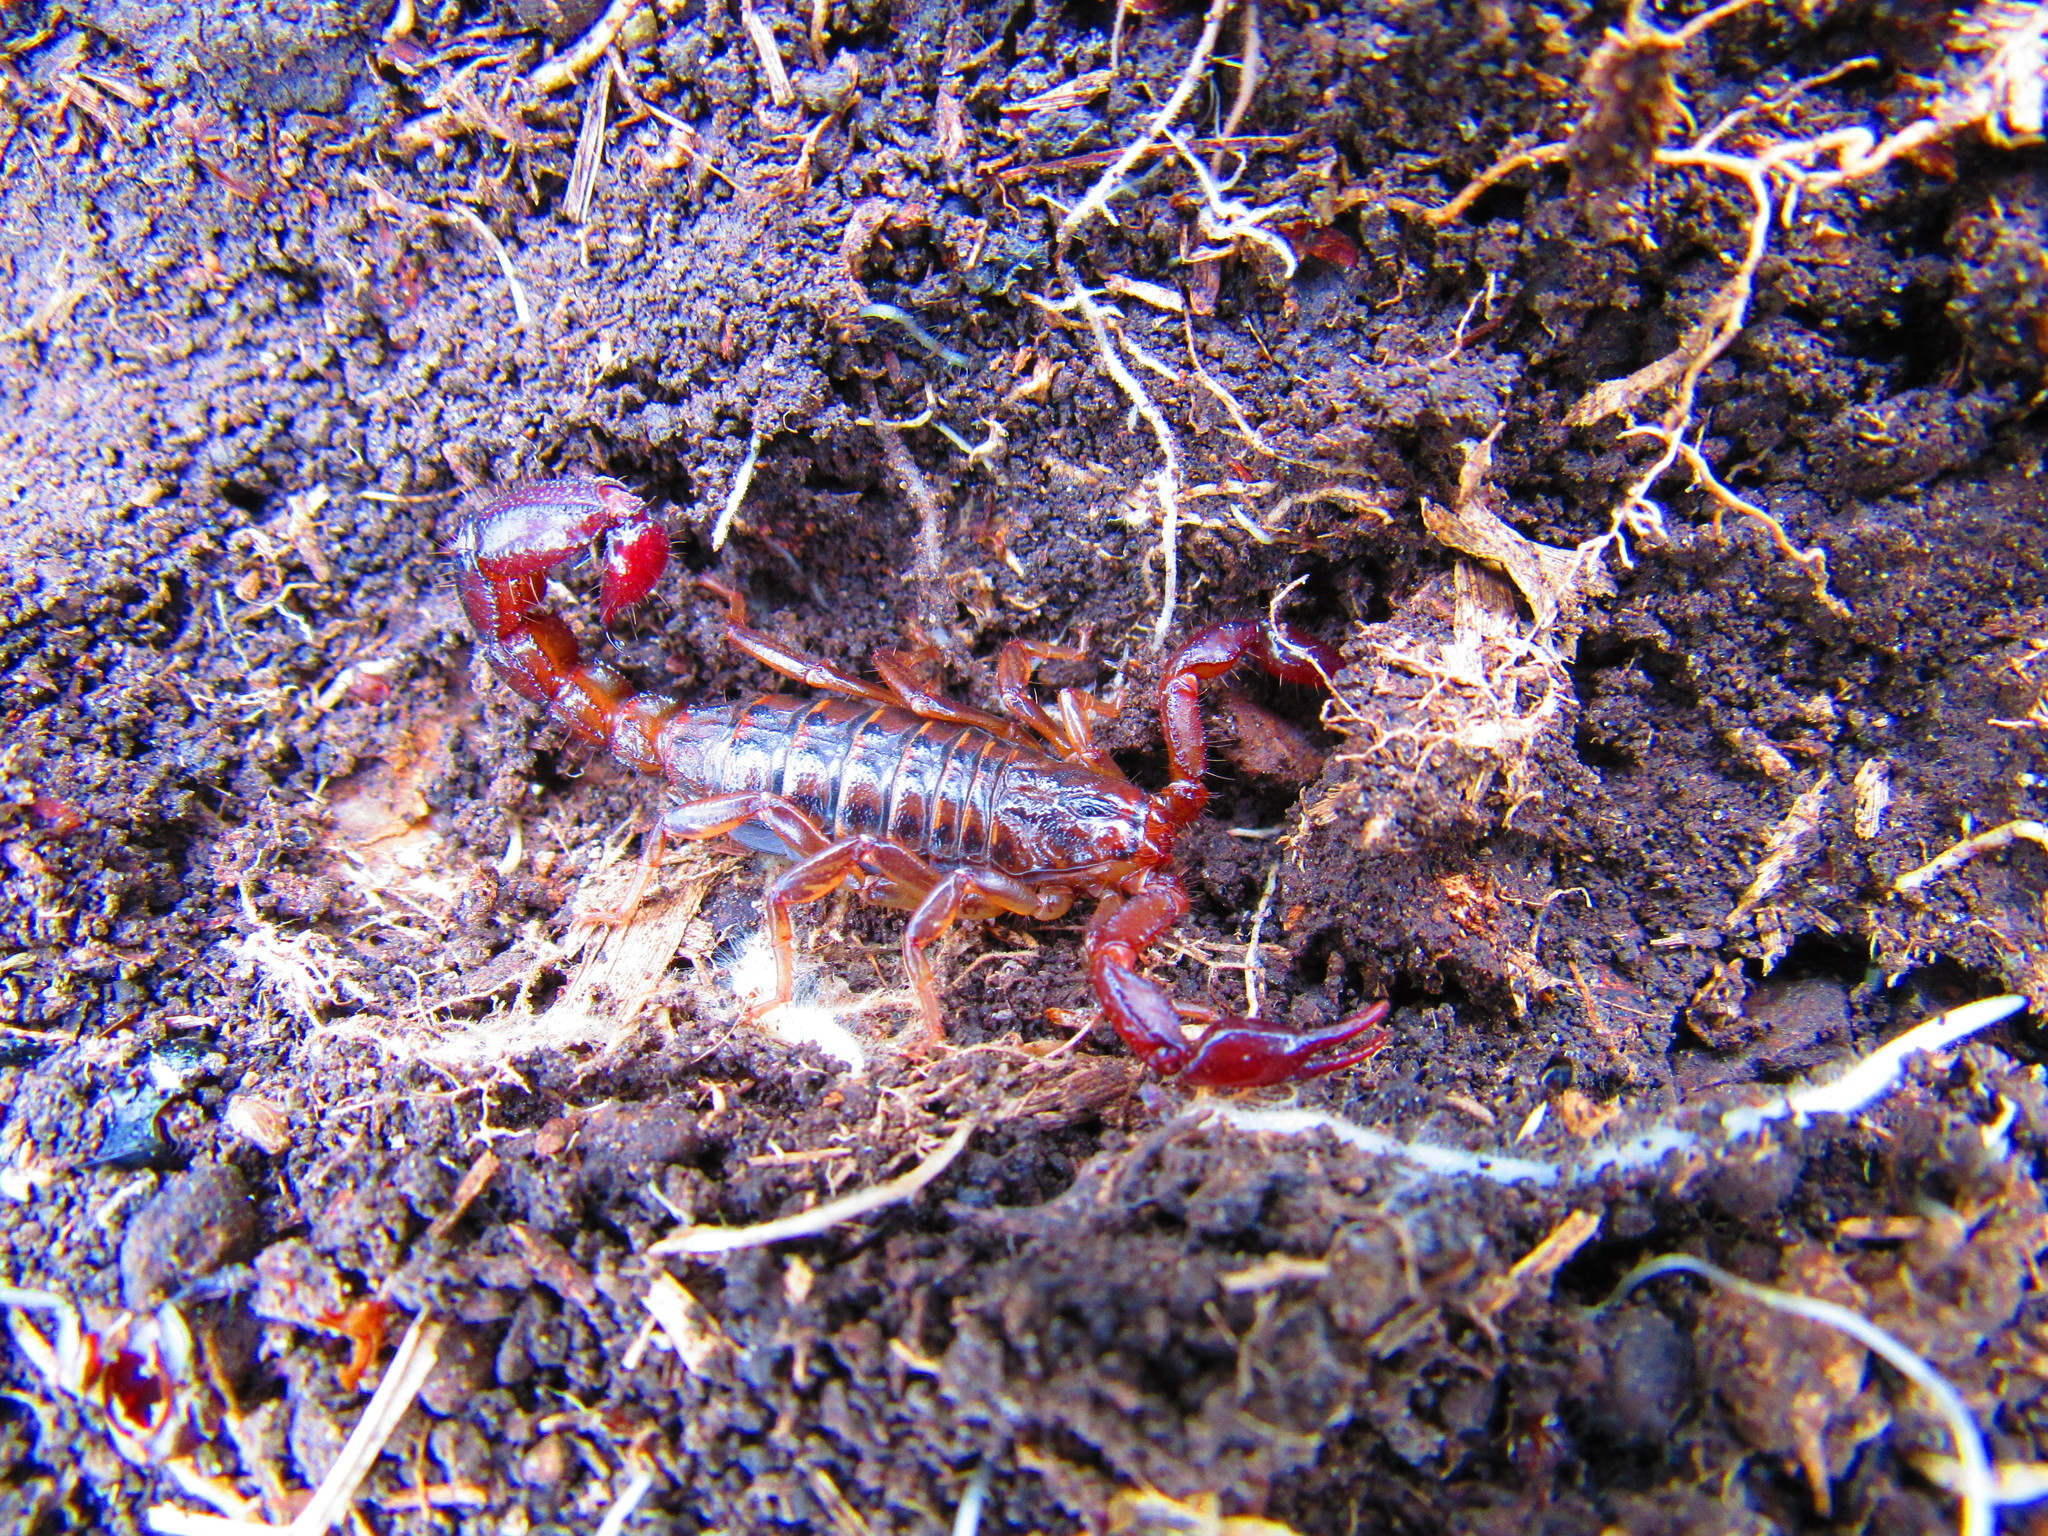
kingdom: Animalia
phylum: Arthropoda
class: Arachnida
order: Scorpiones
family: Vaejovidae
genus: Mesomexovis
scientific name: Mesomexovis spadix
